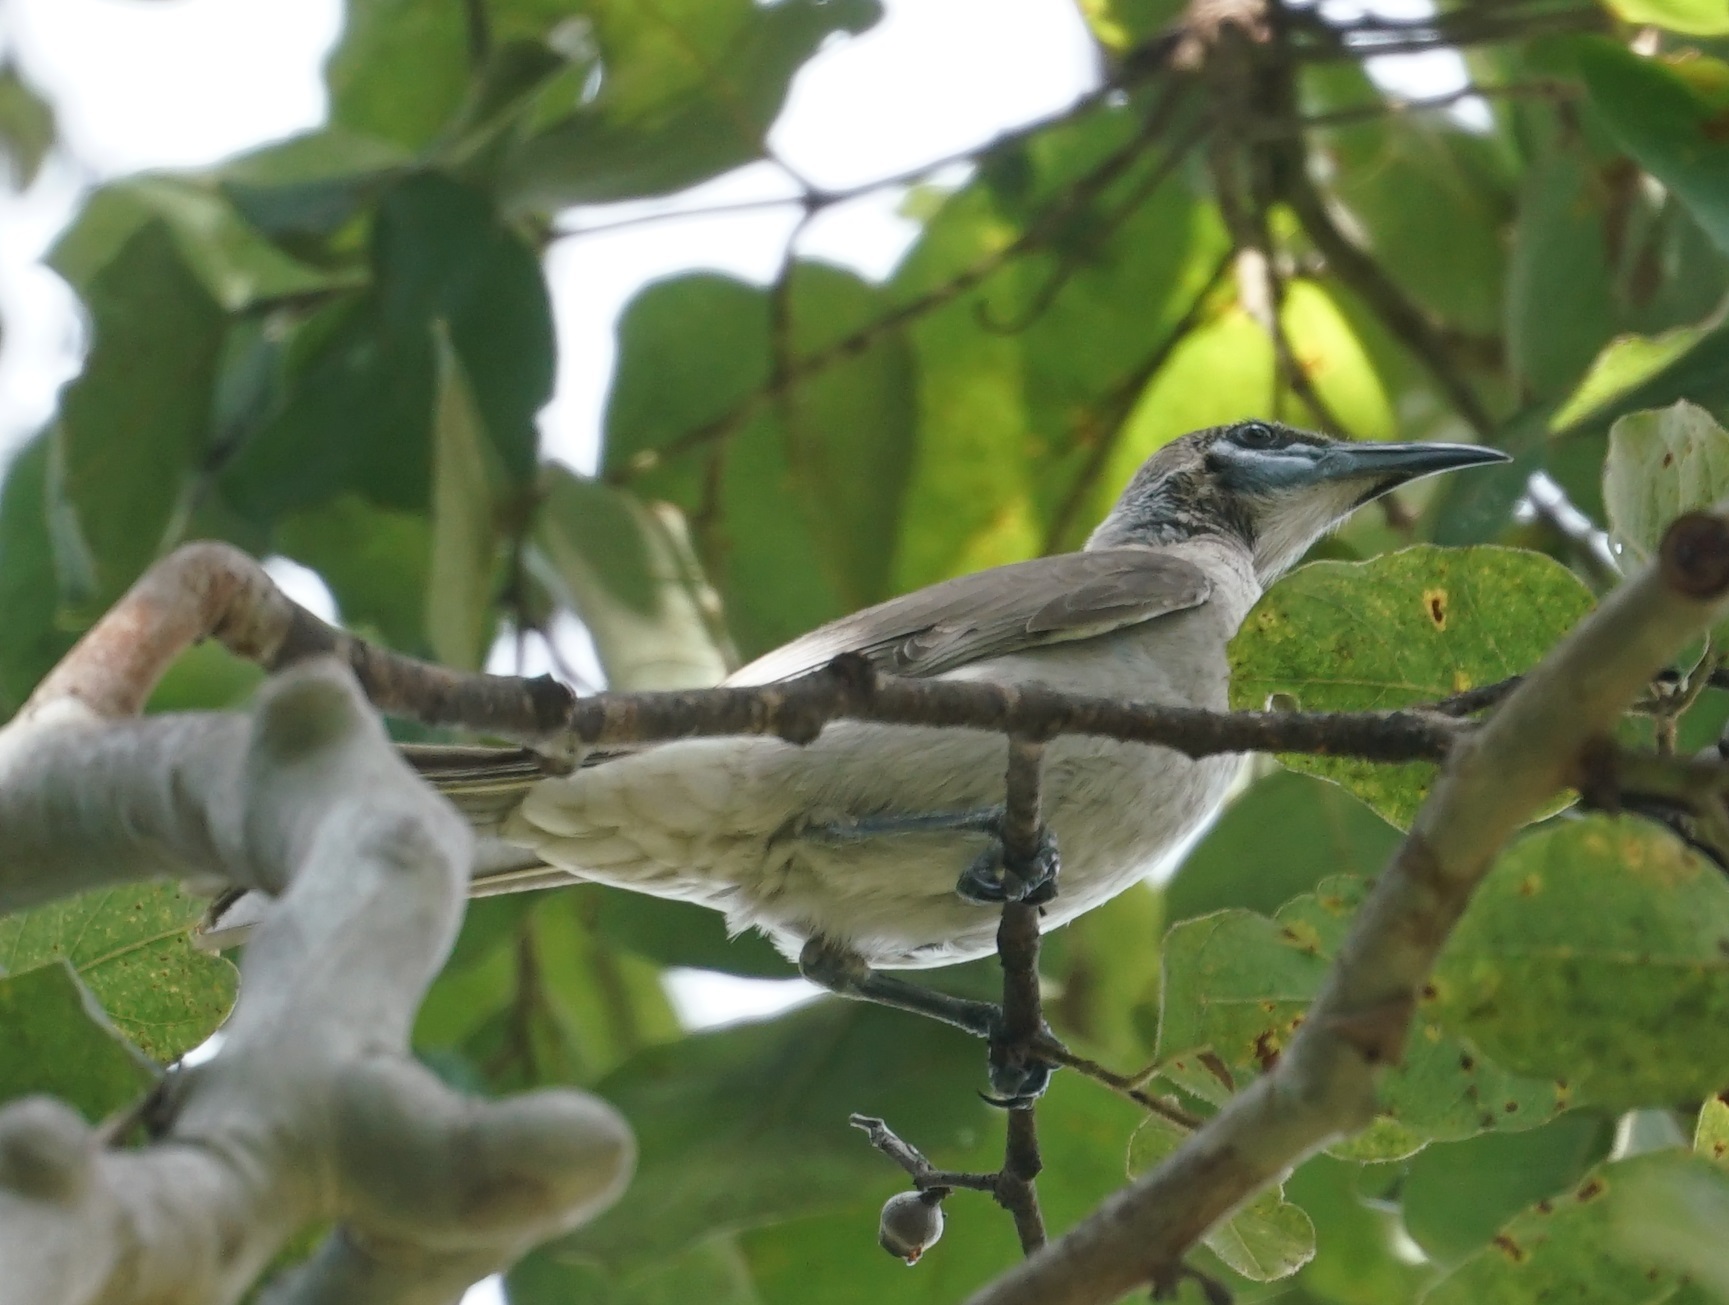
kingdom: Animalia
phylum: Chordata
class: Aves
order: Passeriformes
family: Meliphagidae
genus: Philemon
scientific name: Philemon citreogularis
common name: Little friarbird
